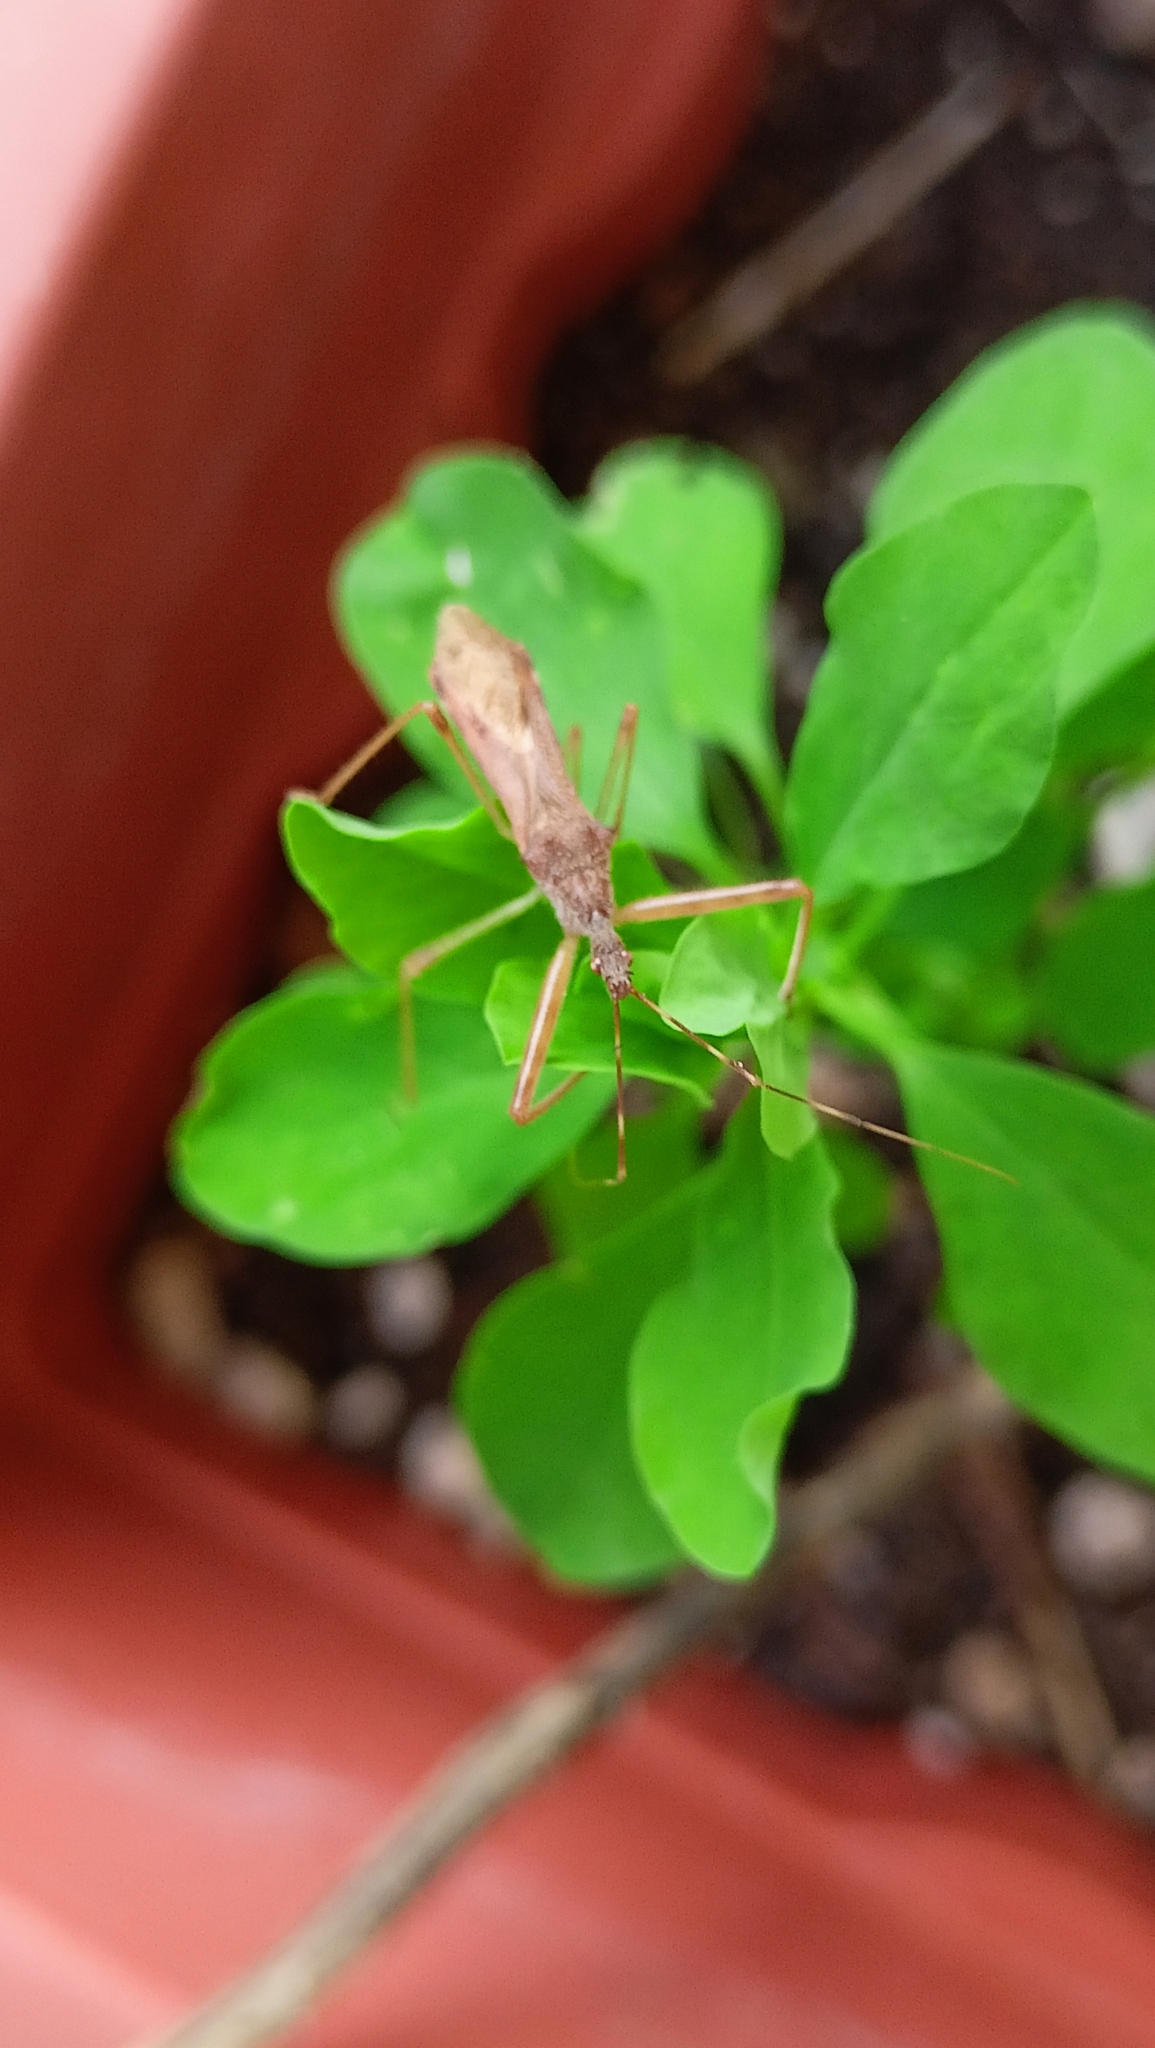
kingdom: Animalia
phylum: Arthropoda
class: Insecta
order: Hemiptera
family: Reduviidae
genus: Nagusta
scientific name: Nagusta goedelii
